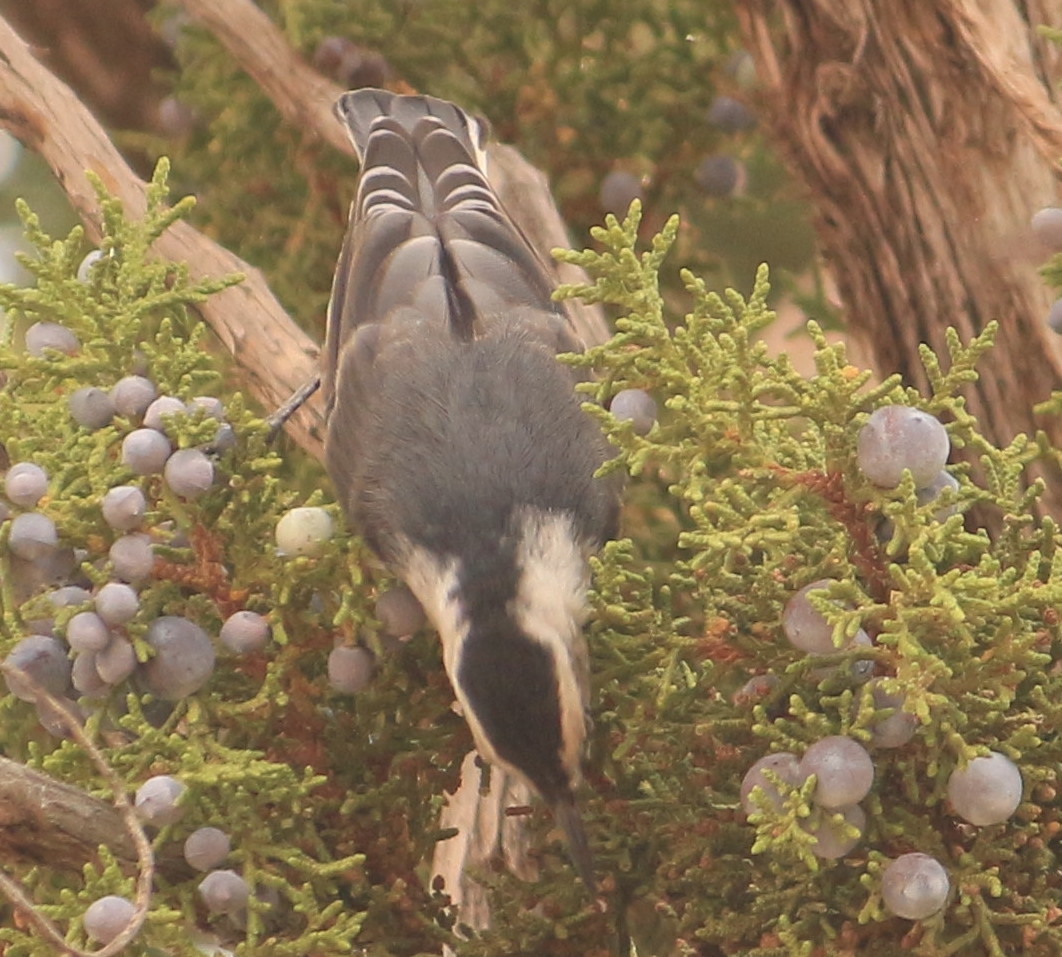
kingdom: Animalia
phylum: Chordata
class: Aves
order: Passeriformes
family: Sittidae
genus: Sitta
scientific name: Sitta carolinensis
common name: White-breasted nuthatch
